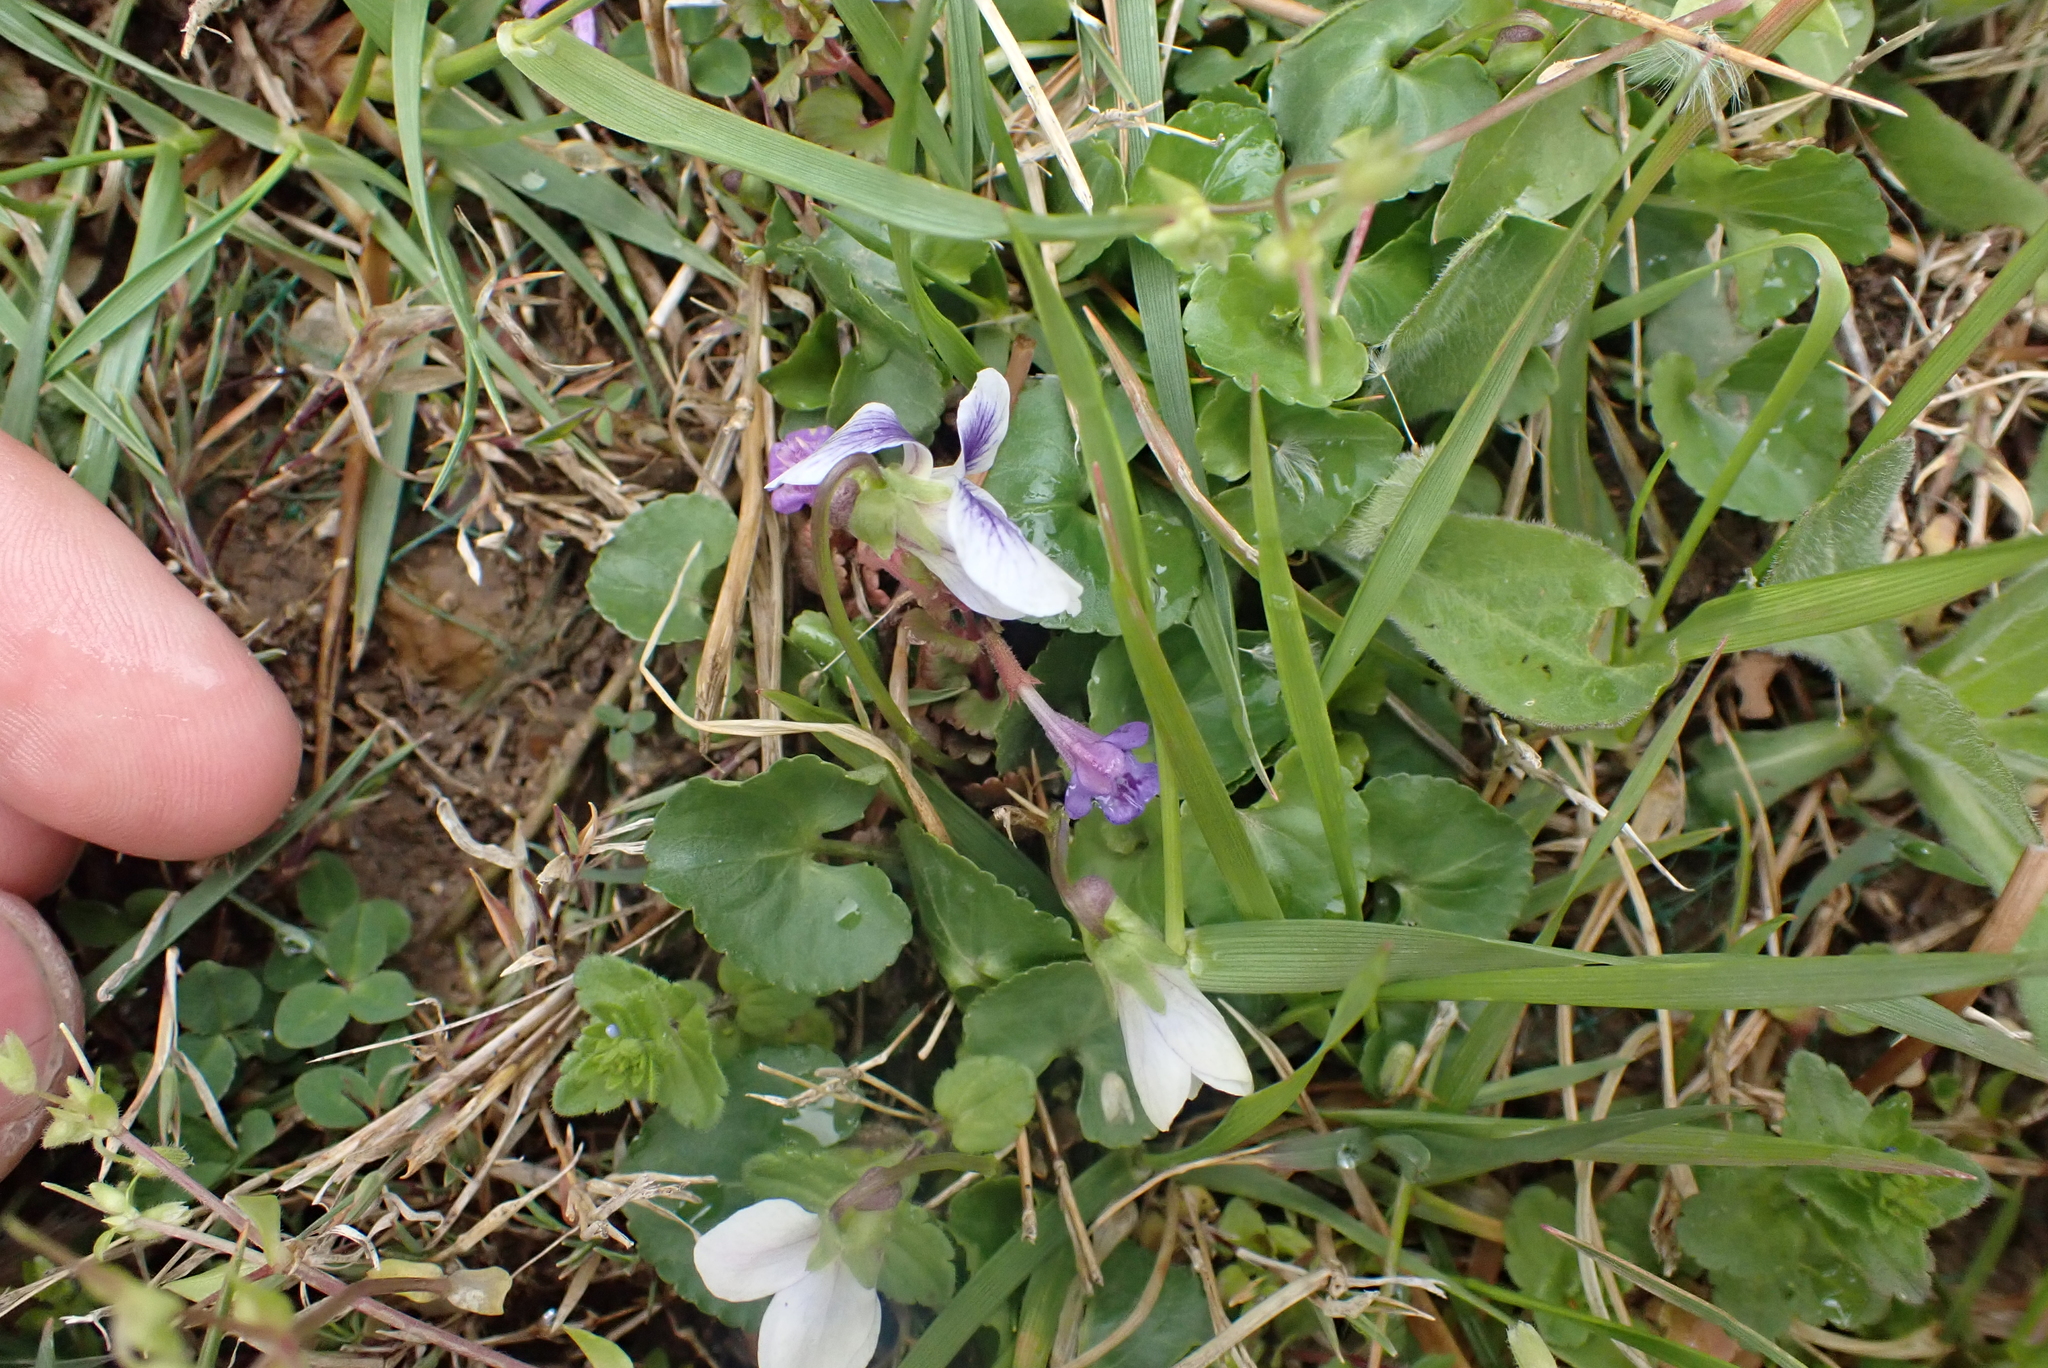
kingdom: Plantae
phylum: Tracheophyta
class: Magnoliopsida
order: Malpighiales
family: Violaceae
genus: Viola
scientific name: Viola sororia
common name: Dooryard violet
